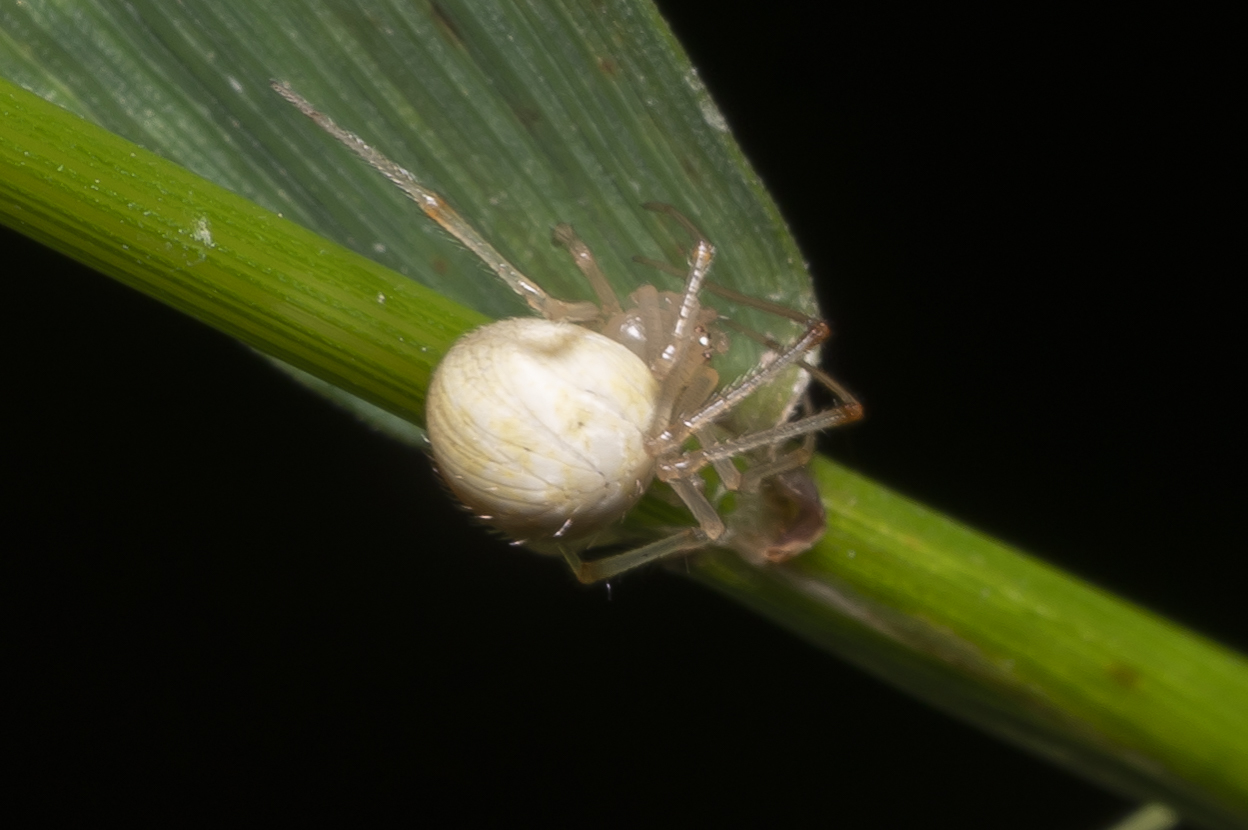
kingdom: Animalia
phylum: Arthropoda
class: Arachnida
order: Araneae
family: Theridiidae
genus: Heterotheridion
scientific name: Heterotheridion nigrovariegatum
